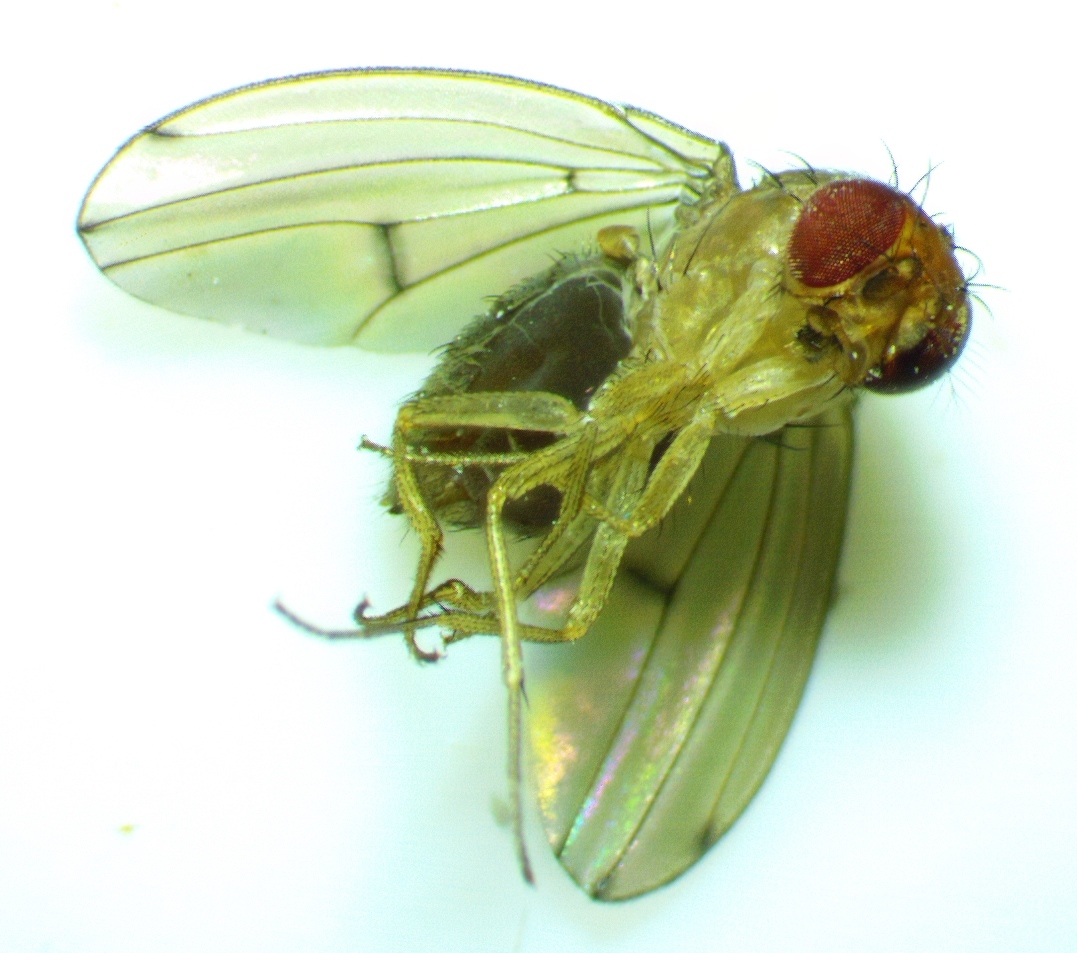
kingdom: Animalia
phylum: Arthropoda
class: Insecta
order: Diptera
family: Drosophilidae
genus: Drosophila
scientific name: Drosophila tripunctata
